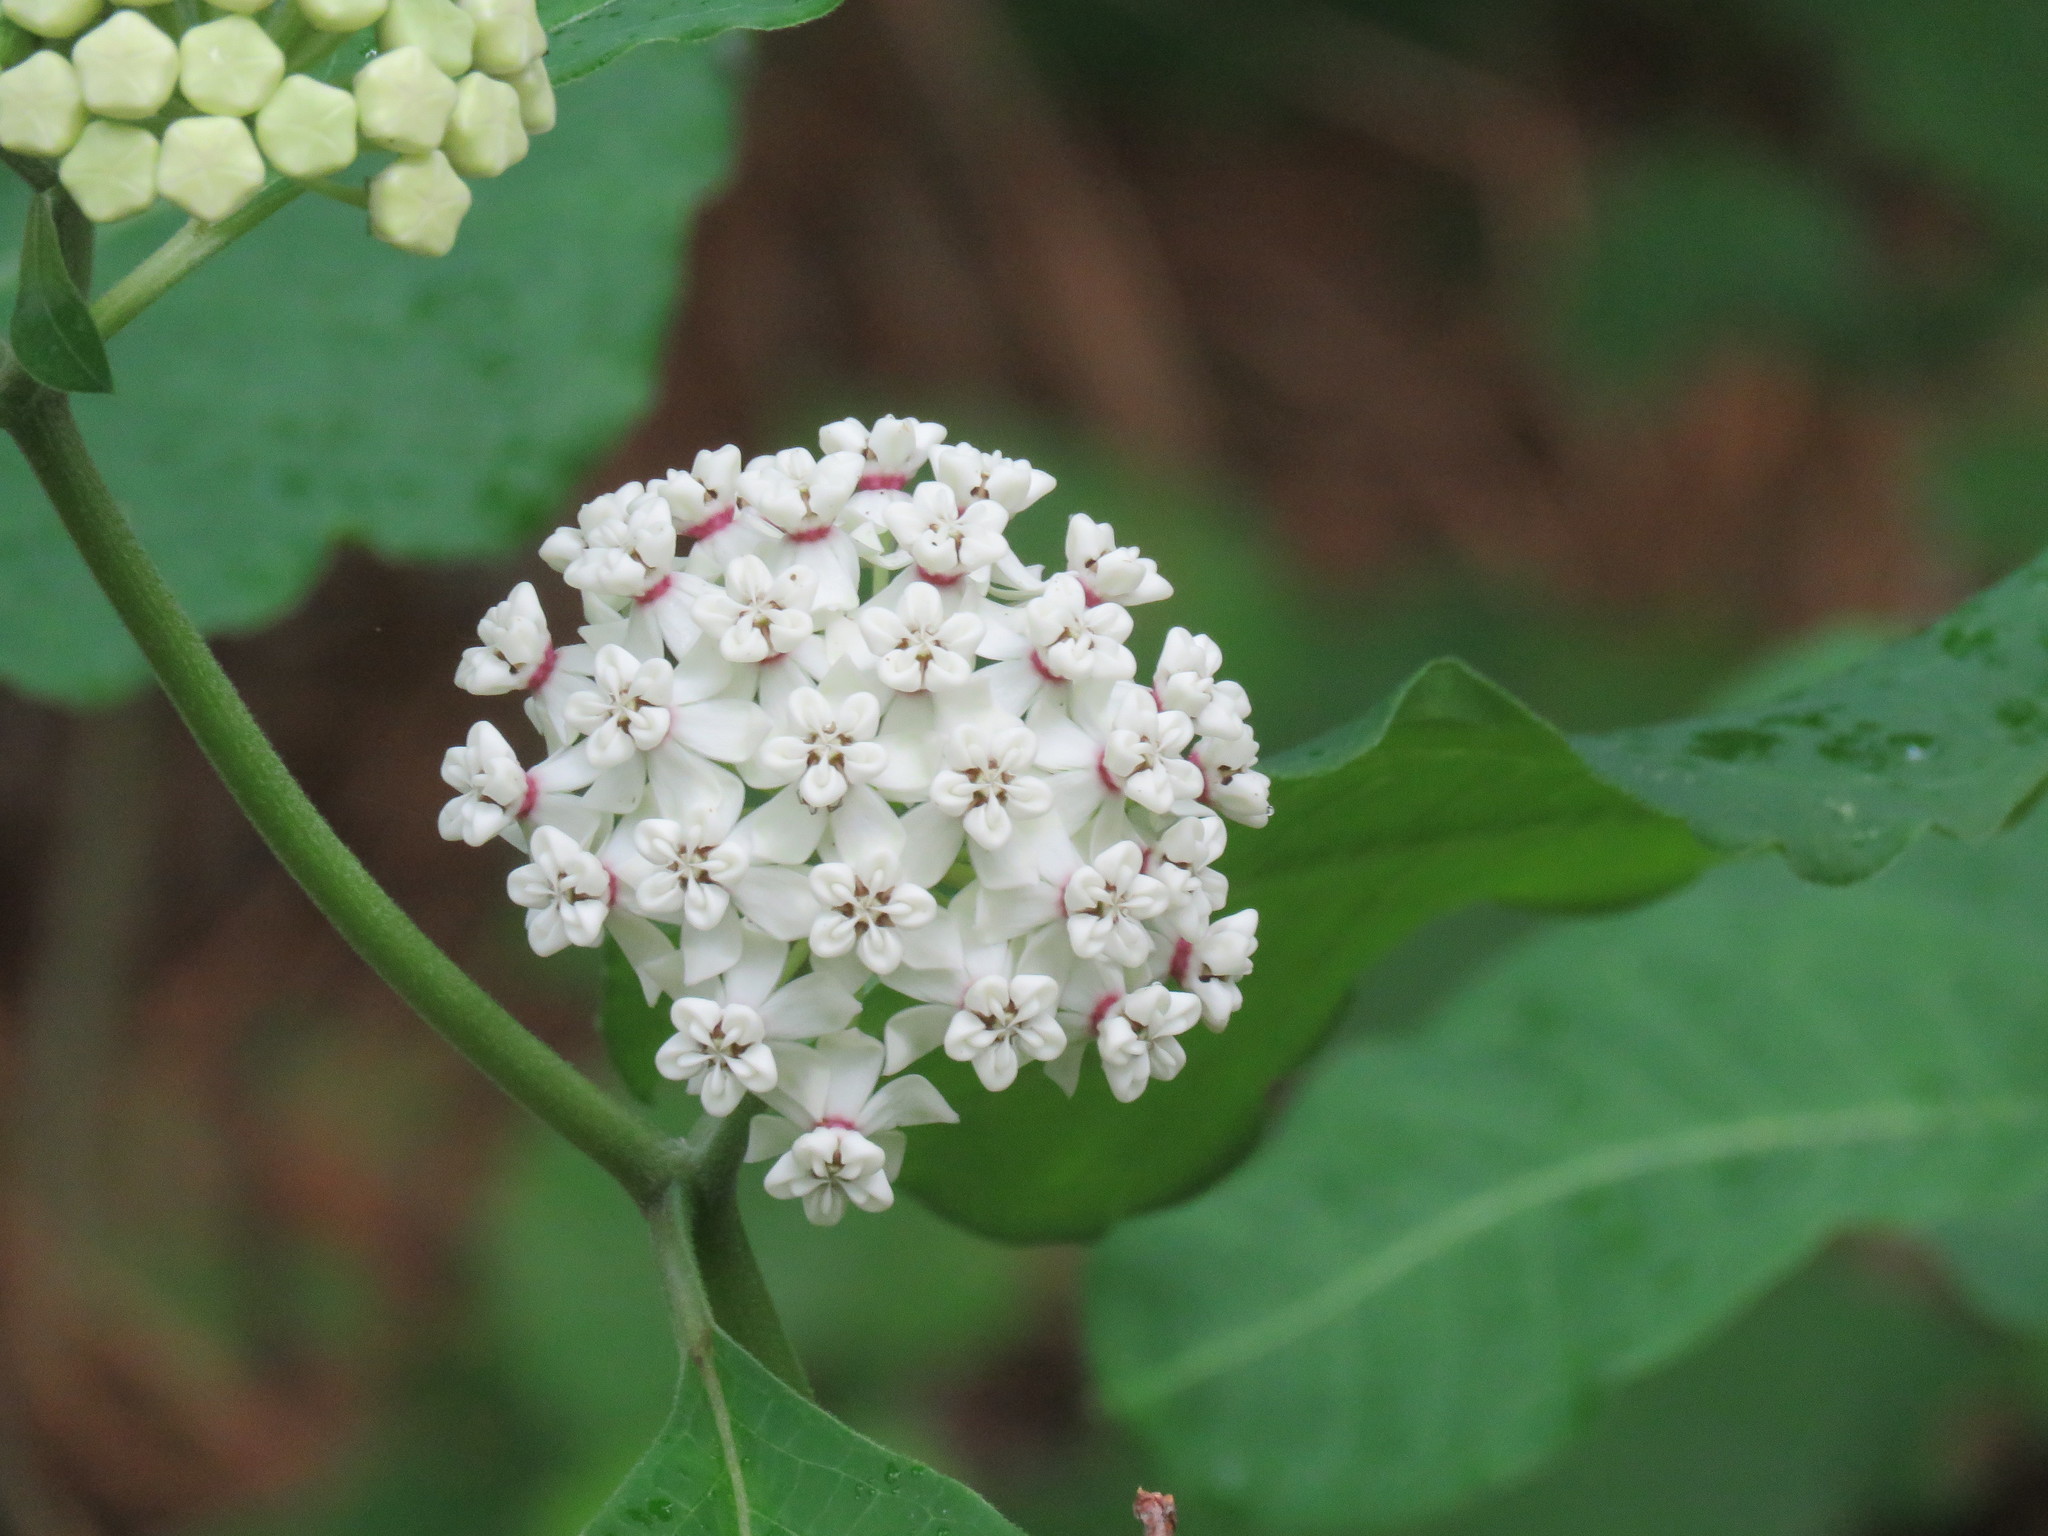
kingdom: Plantae
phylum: Tracheophyta
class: Magnoliopsida
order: Gentianales
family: Apocynaceae
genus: Asclepias
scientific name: Asclepias variegata
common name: Variegated milkweed
